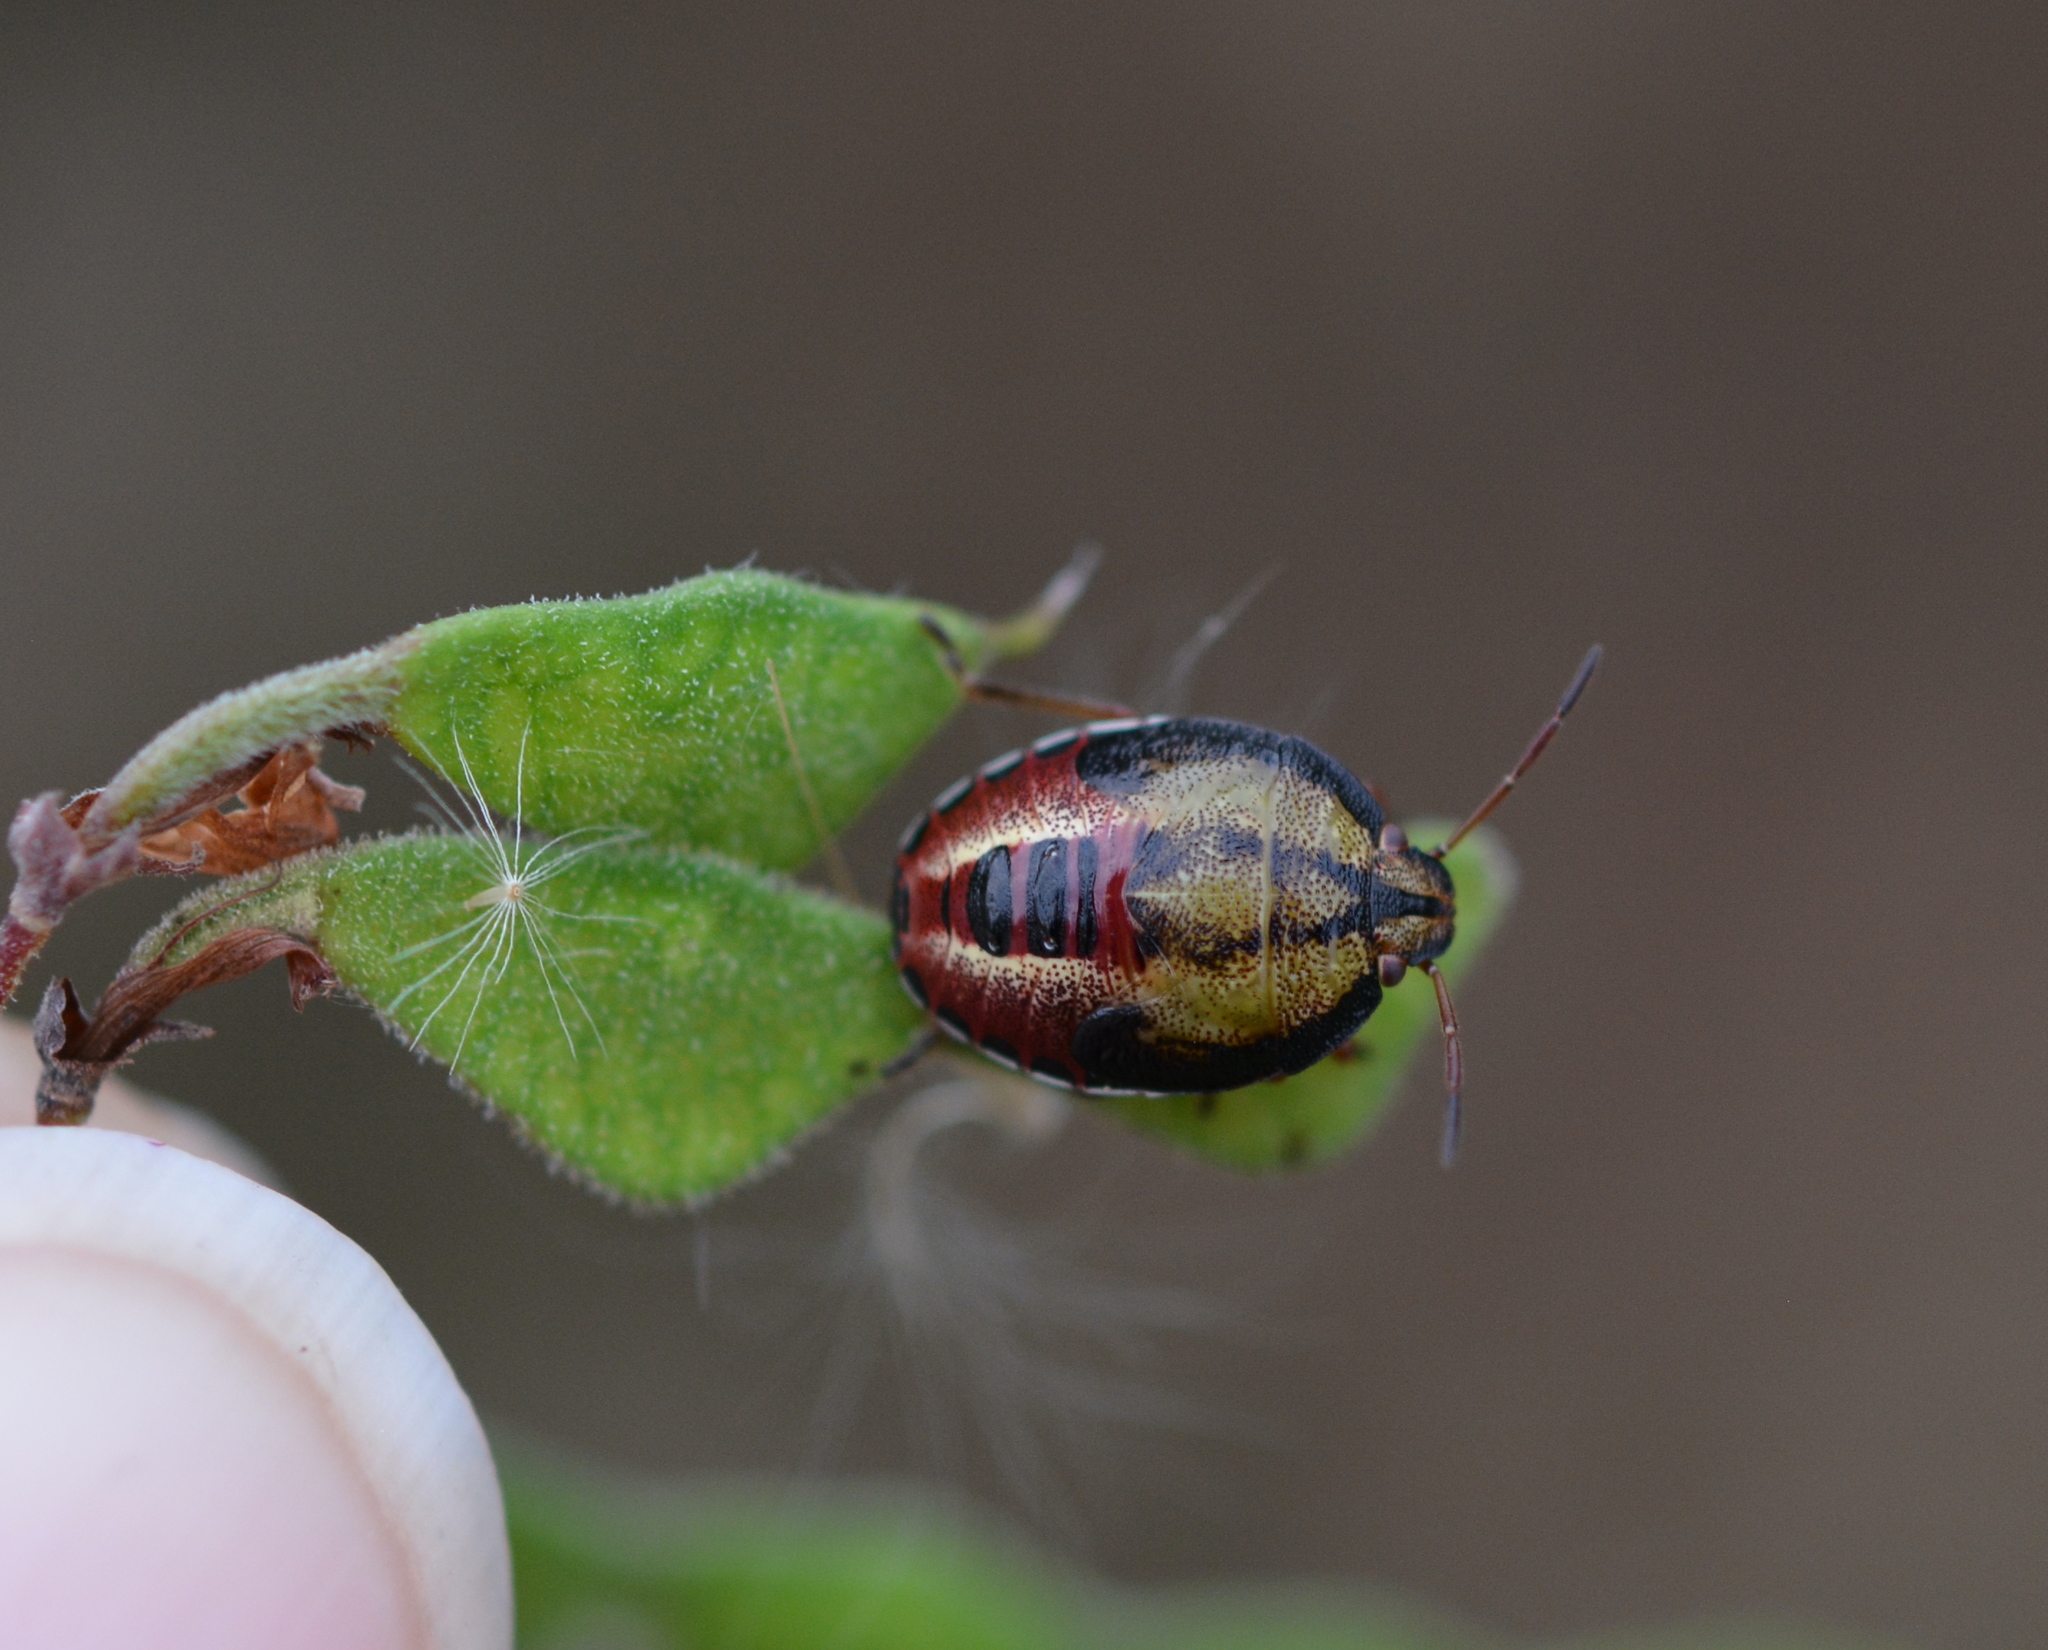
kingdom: Animalia
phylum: Arthropoda
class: Insecta
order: Hemiptera
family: Pentatomidae
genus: Piezodorus
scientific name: Piezodorus guildinii
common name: Redbanded stink bug
